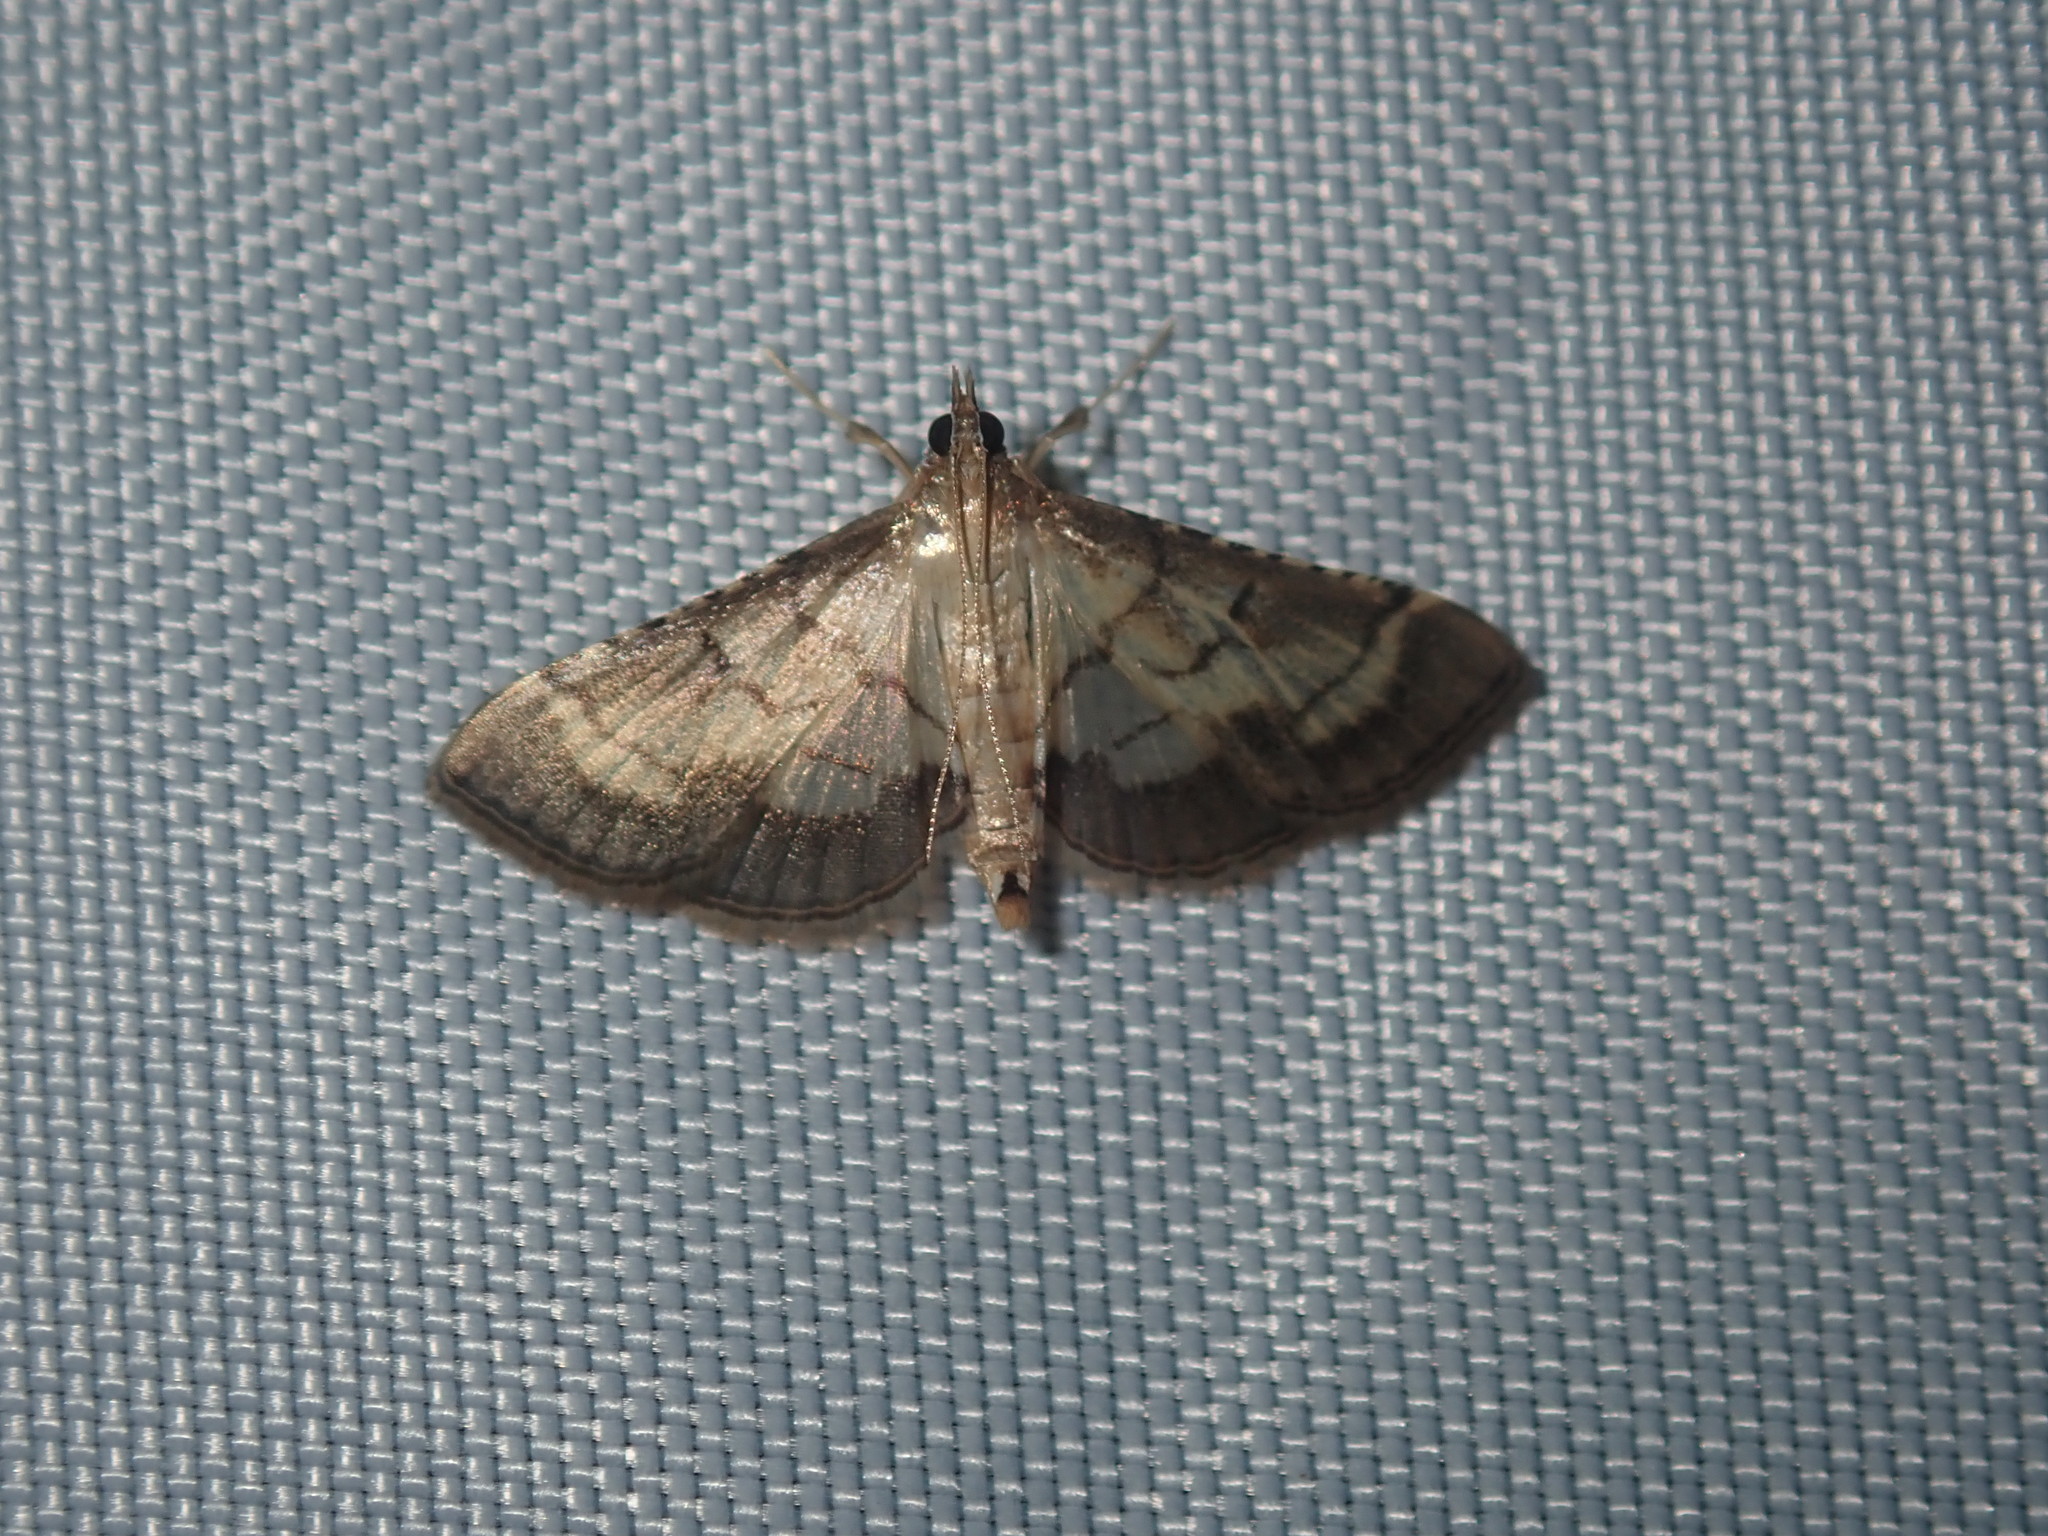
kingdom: Animalia
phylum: Arthropoda
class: Insecta
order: Lepidoptera
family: Crambidae
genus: Cnaphalocrocis
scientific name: Cnaphalocrocis poeyalis
